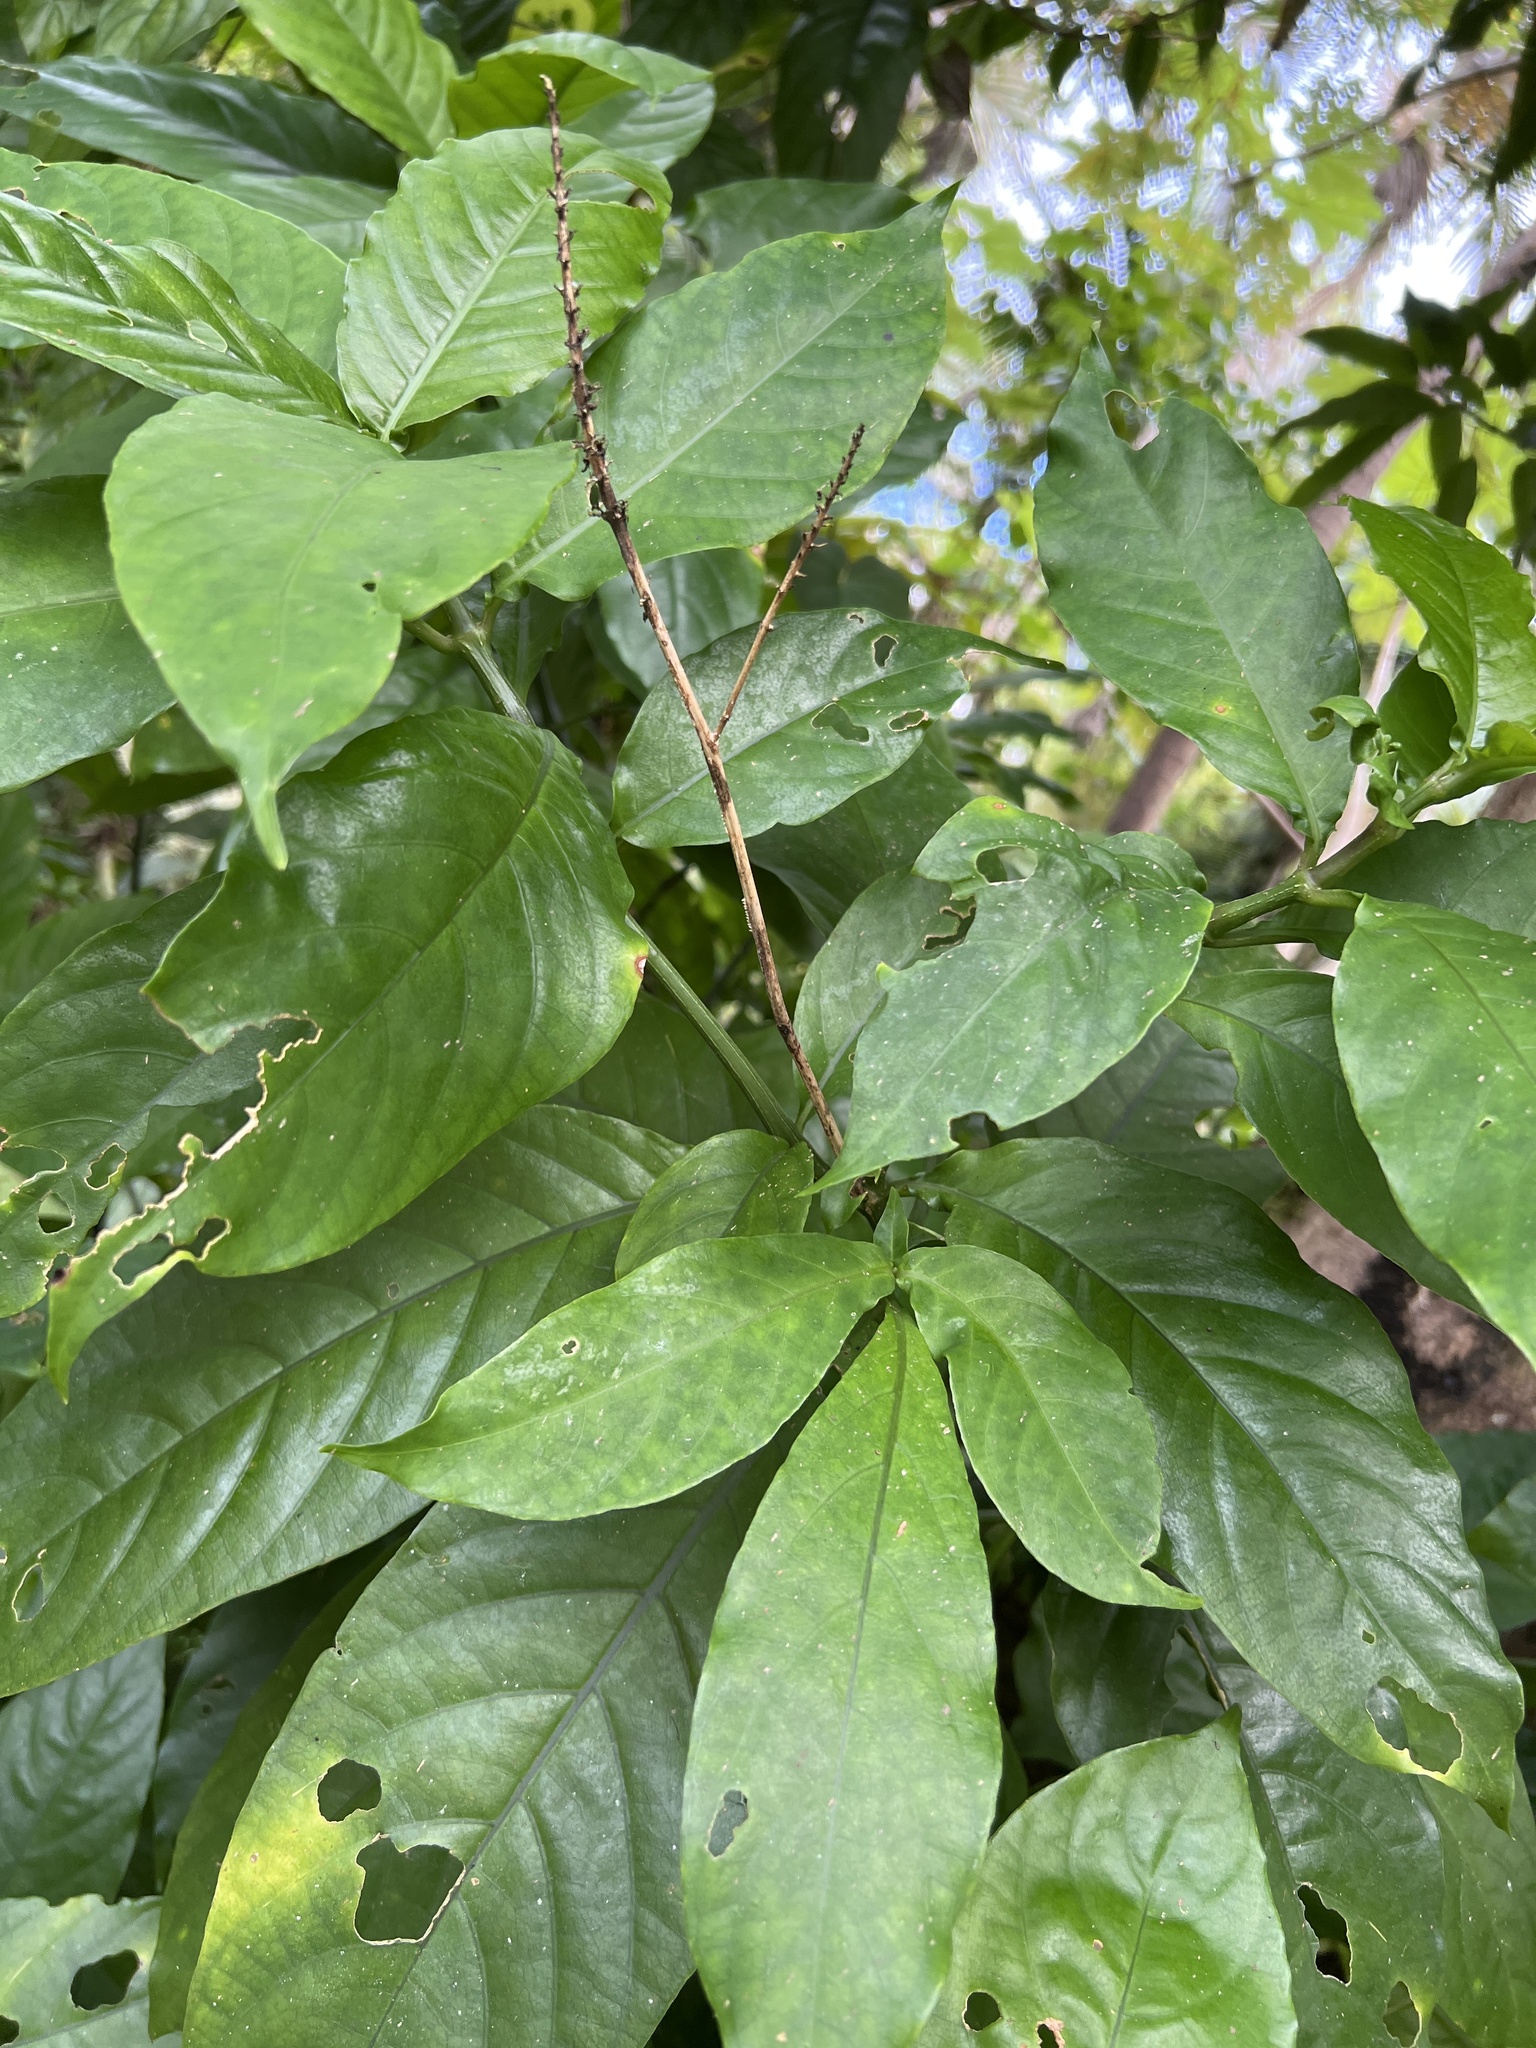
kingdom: Plantae
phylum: Tracheophyta
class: Magnoliopsida
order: Lamiales
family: Acanthaceae
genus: Odontonema
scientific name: Odontonema cuspidatum
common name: Mottled toothedthread
